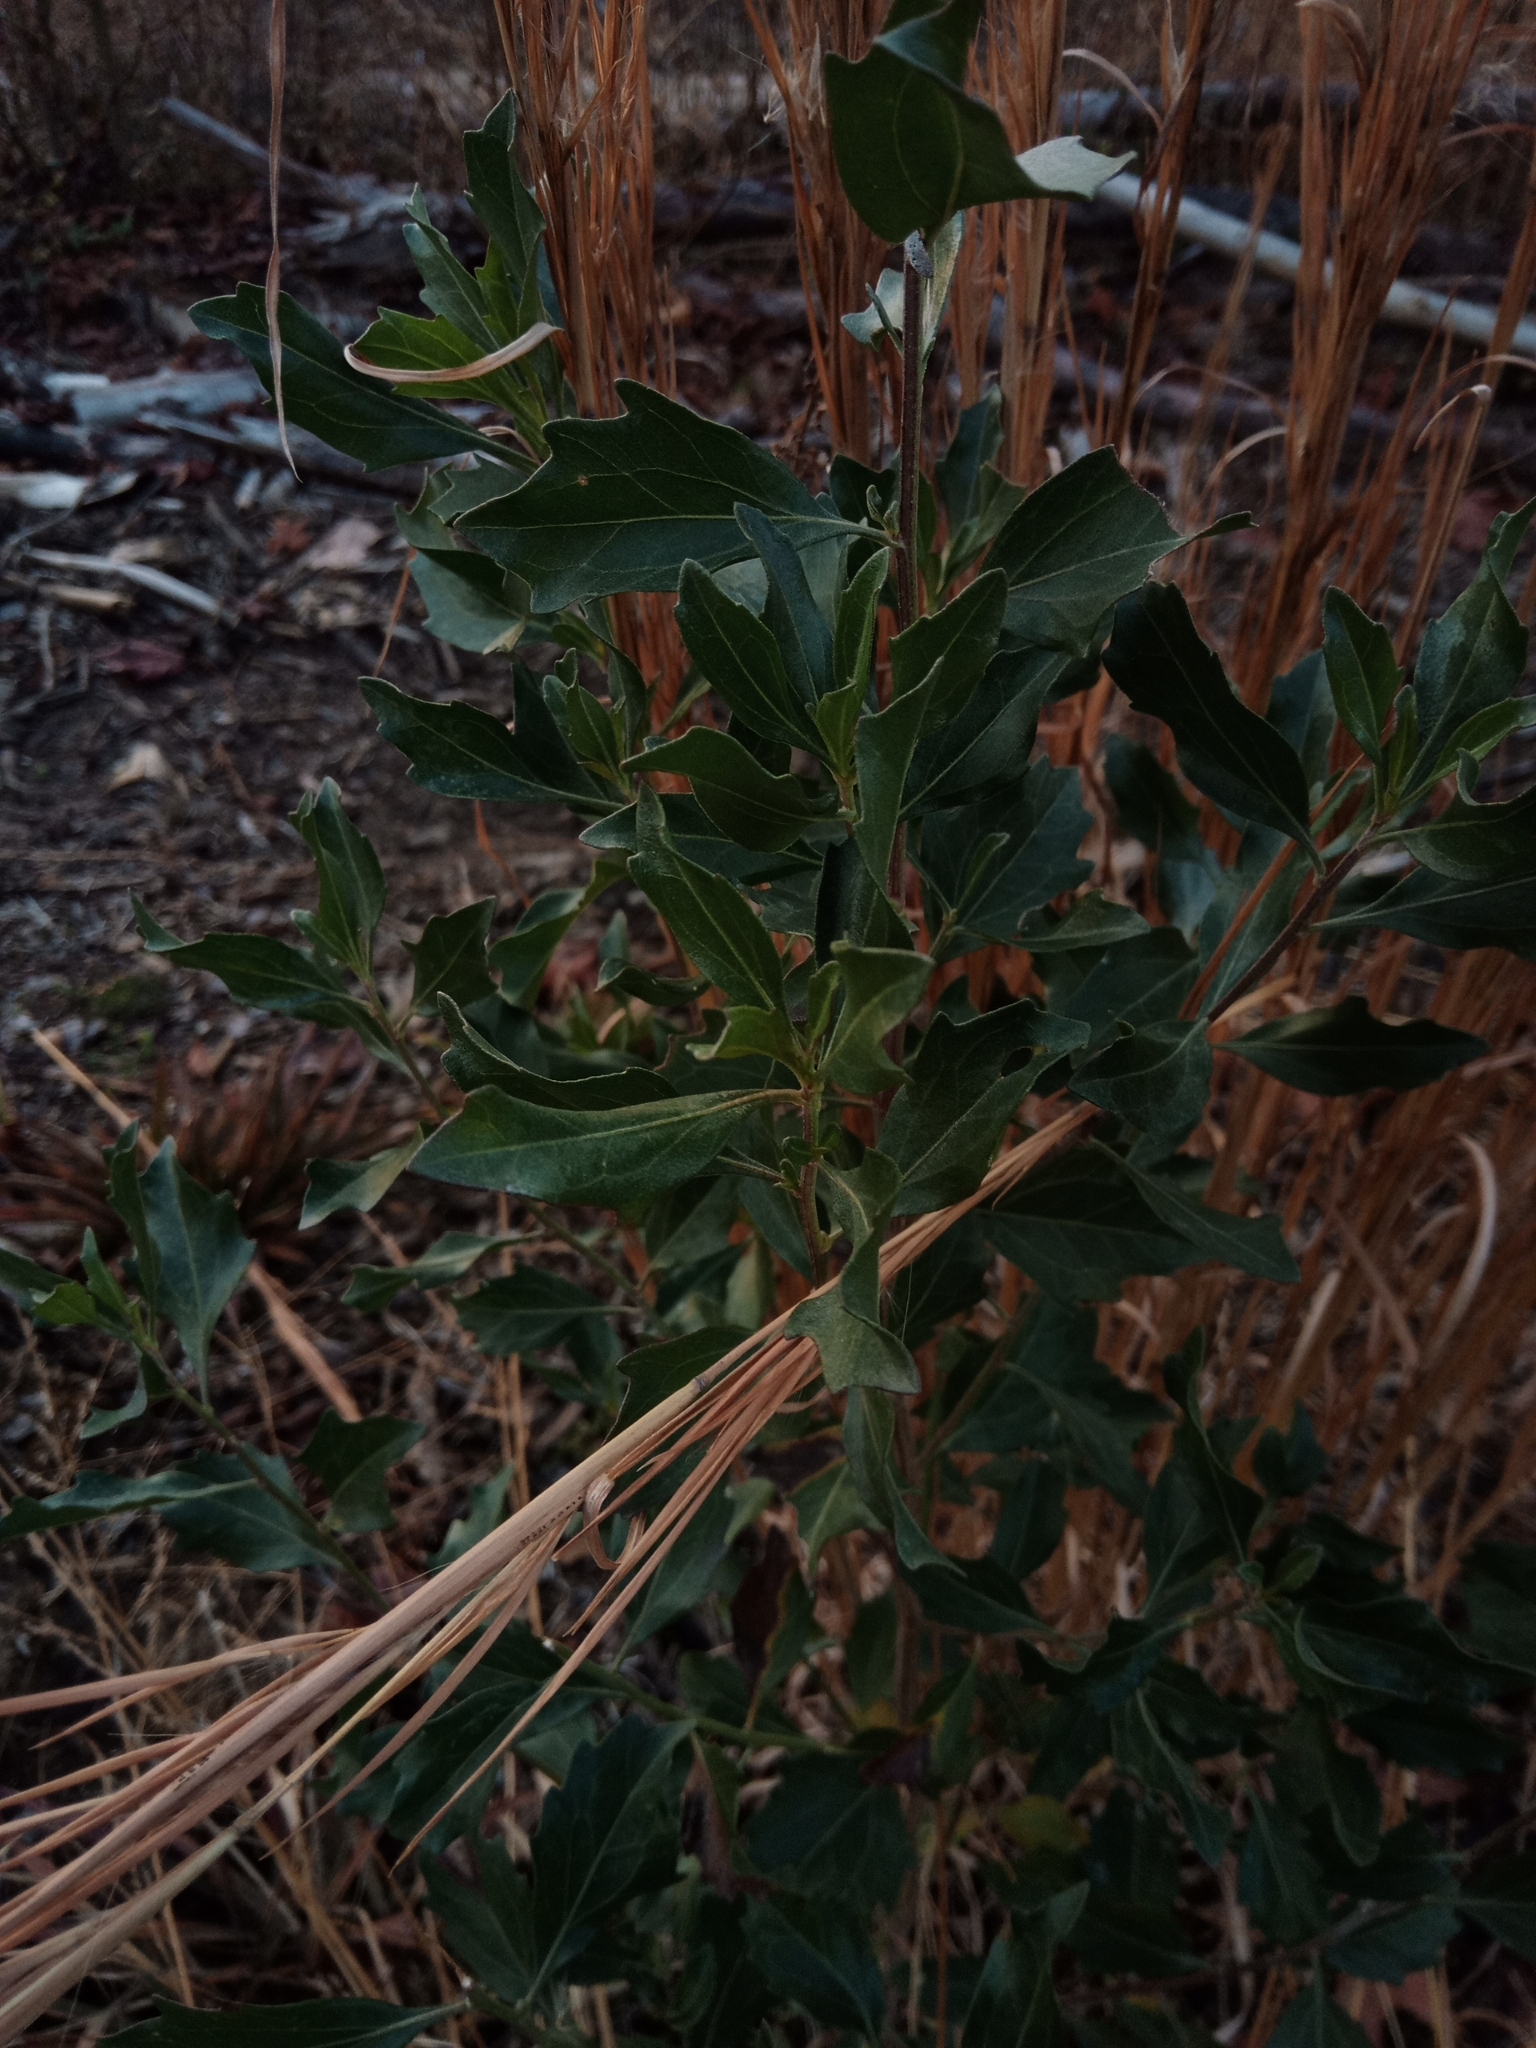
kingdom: Plantae
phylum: Tracheophyta
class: Magnoliopsida
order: Asterales
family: Asteraceae
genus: Baccharis
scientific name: Baccharis halimifolia
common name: Eastern baccharis
